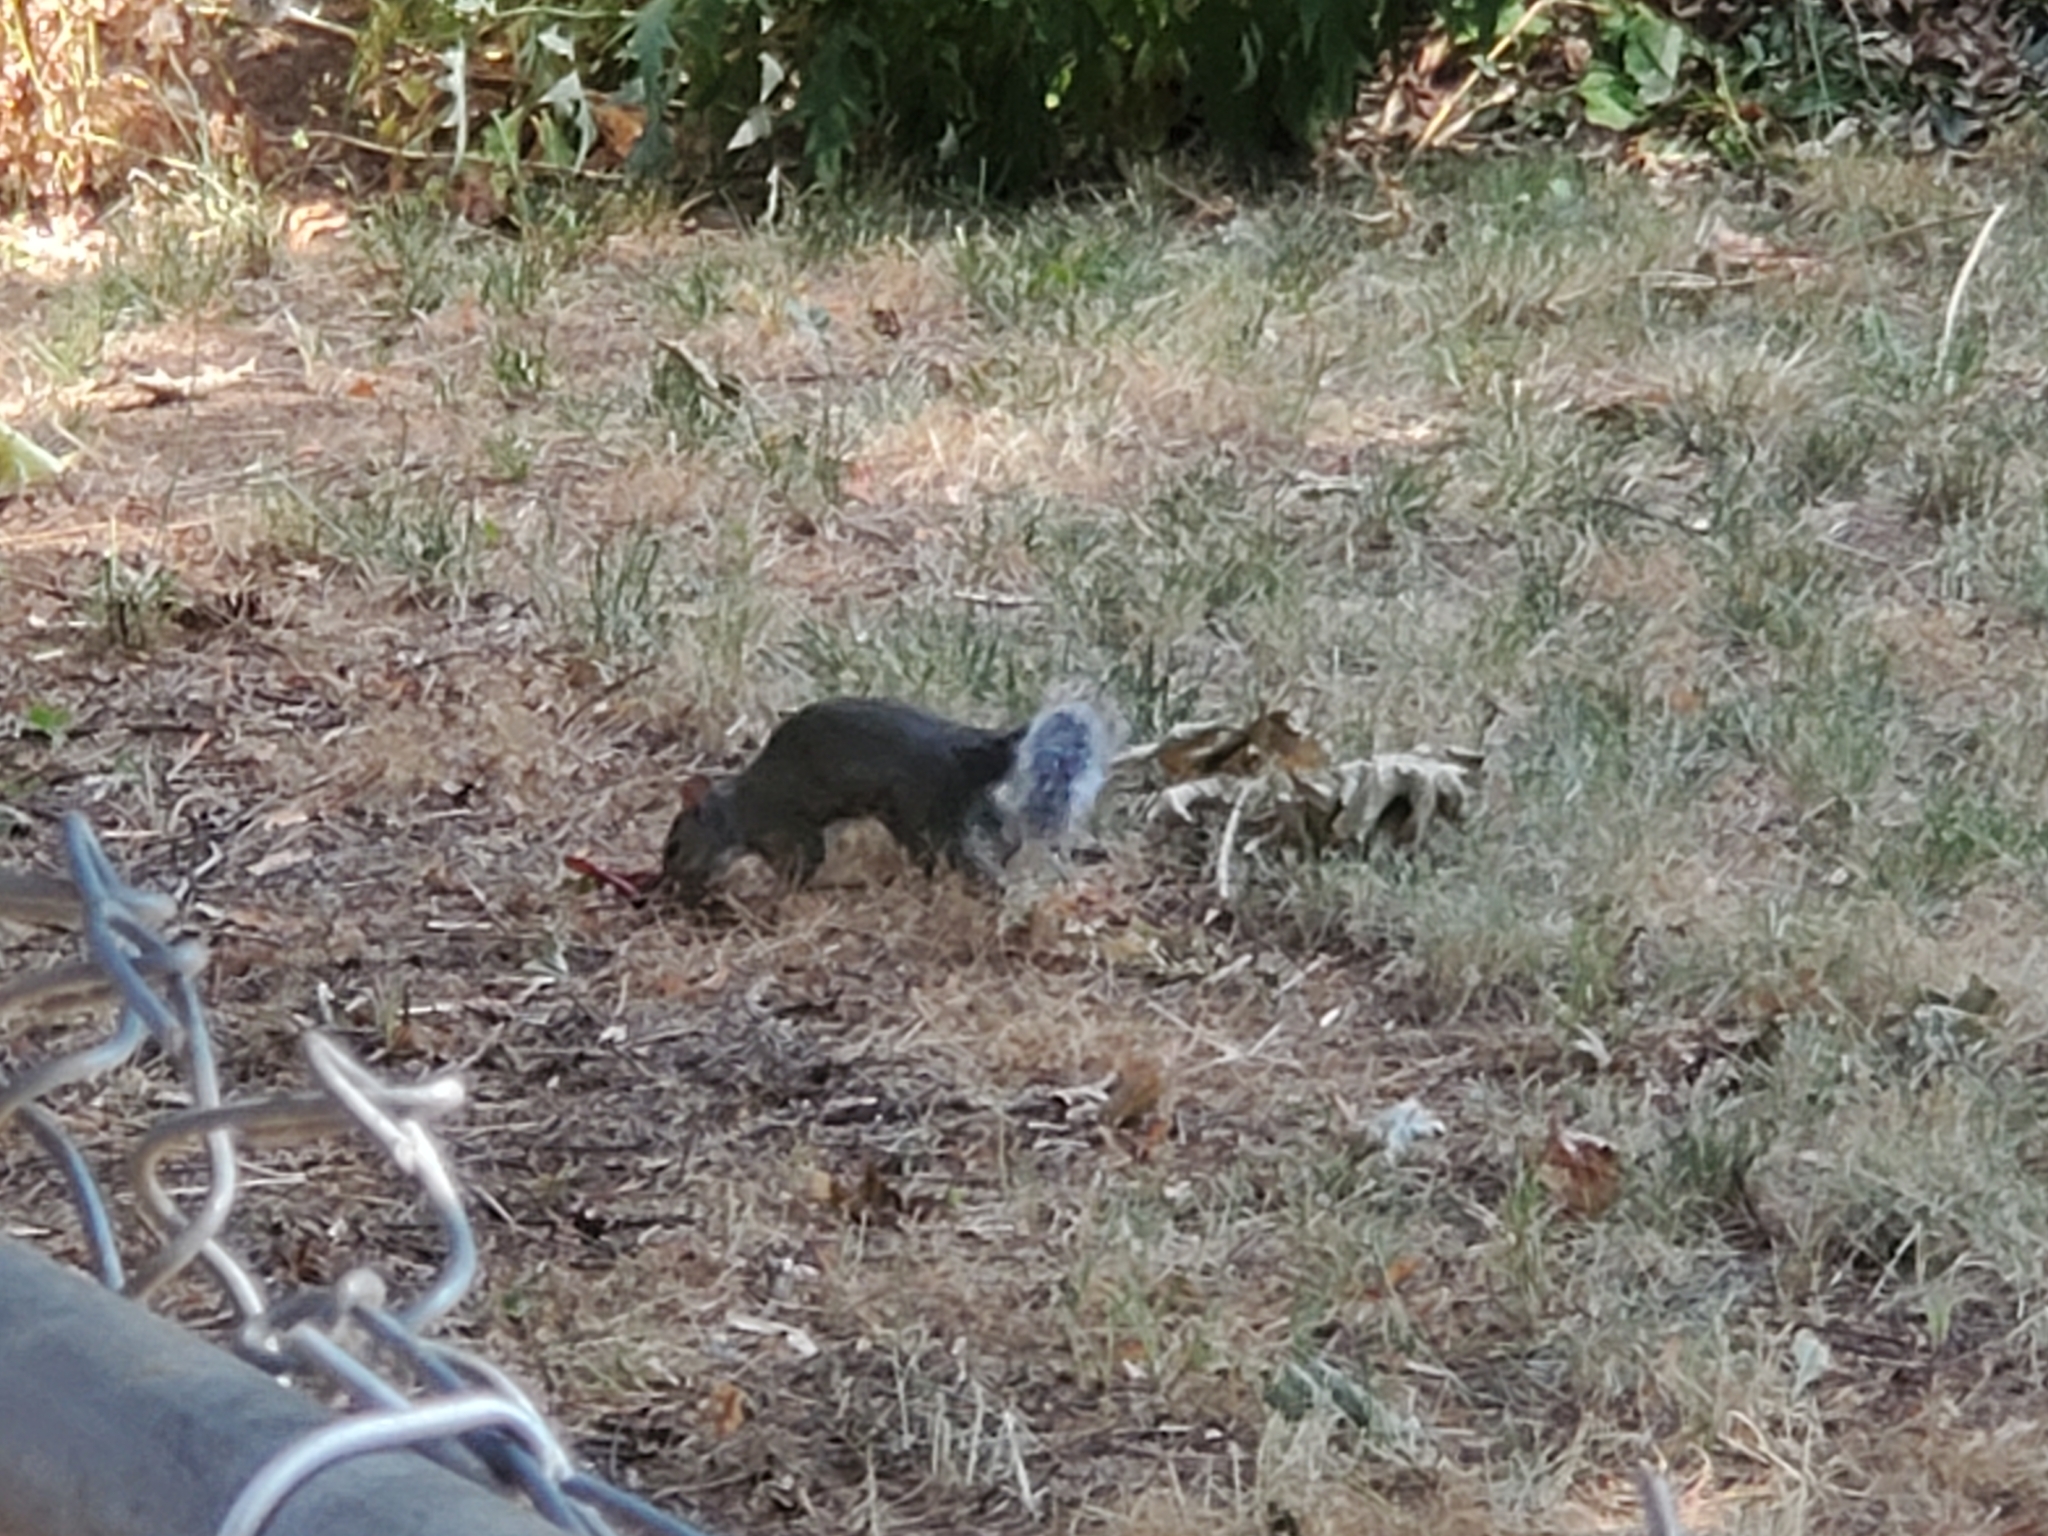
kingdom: Animalia
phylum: Chordata
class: Mammalia
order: Rodentia
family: Sciuridae
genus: Sciurus
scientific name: Sciurus carolinensis
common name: Eastern gray squirrel
